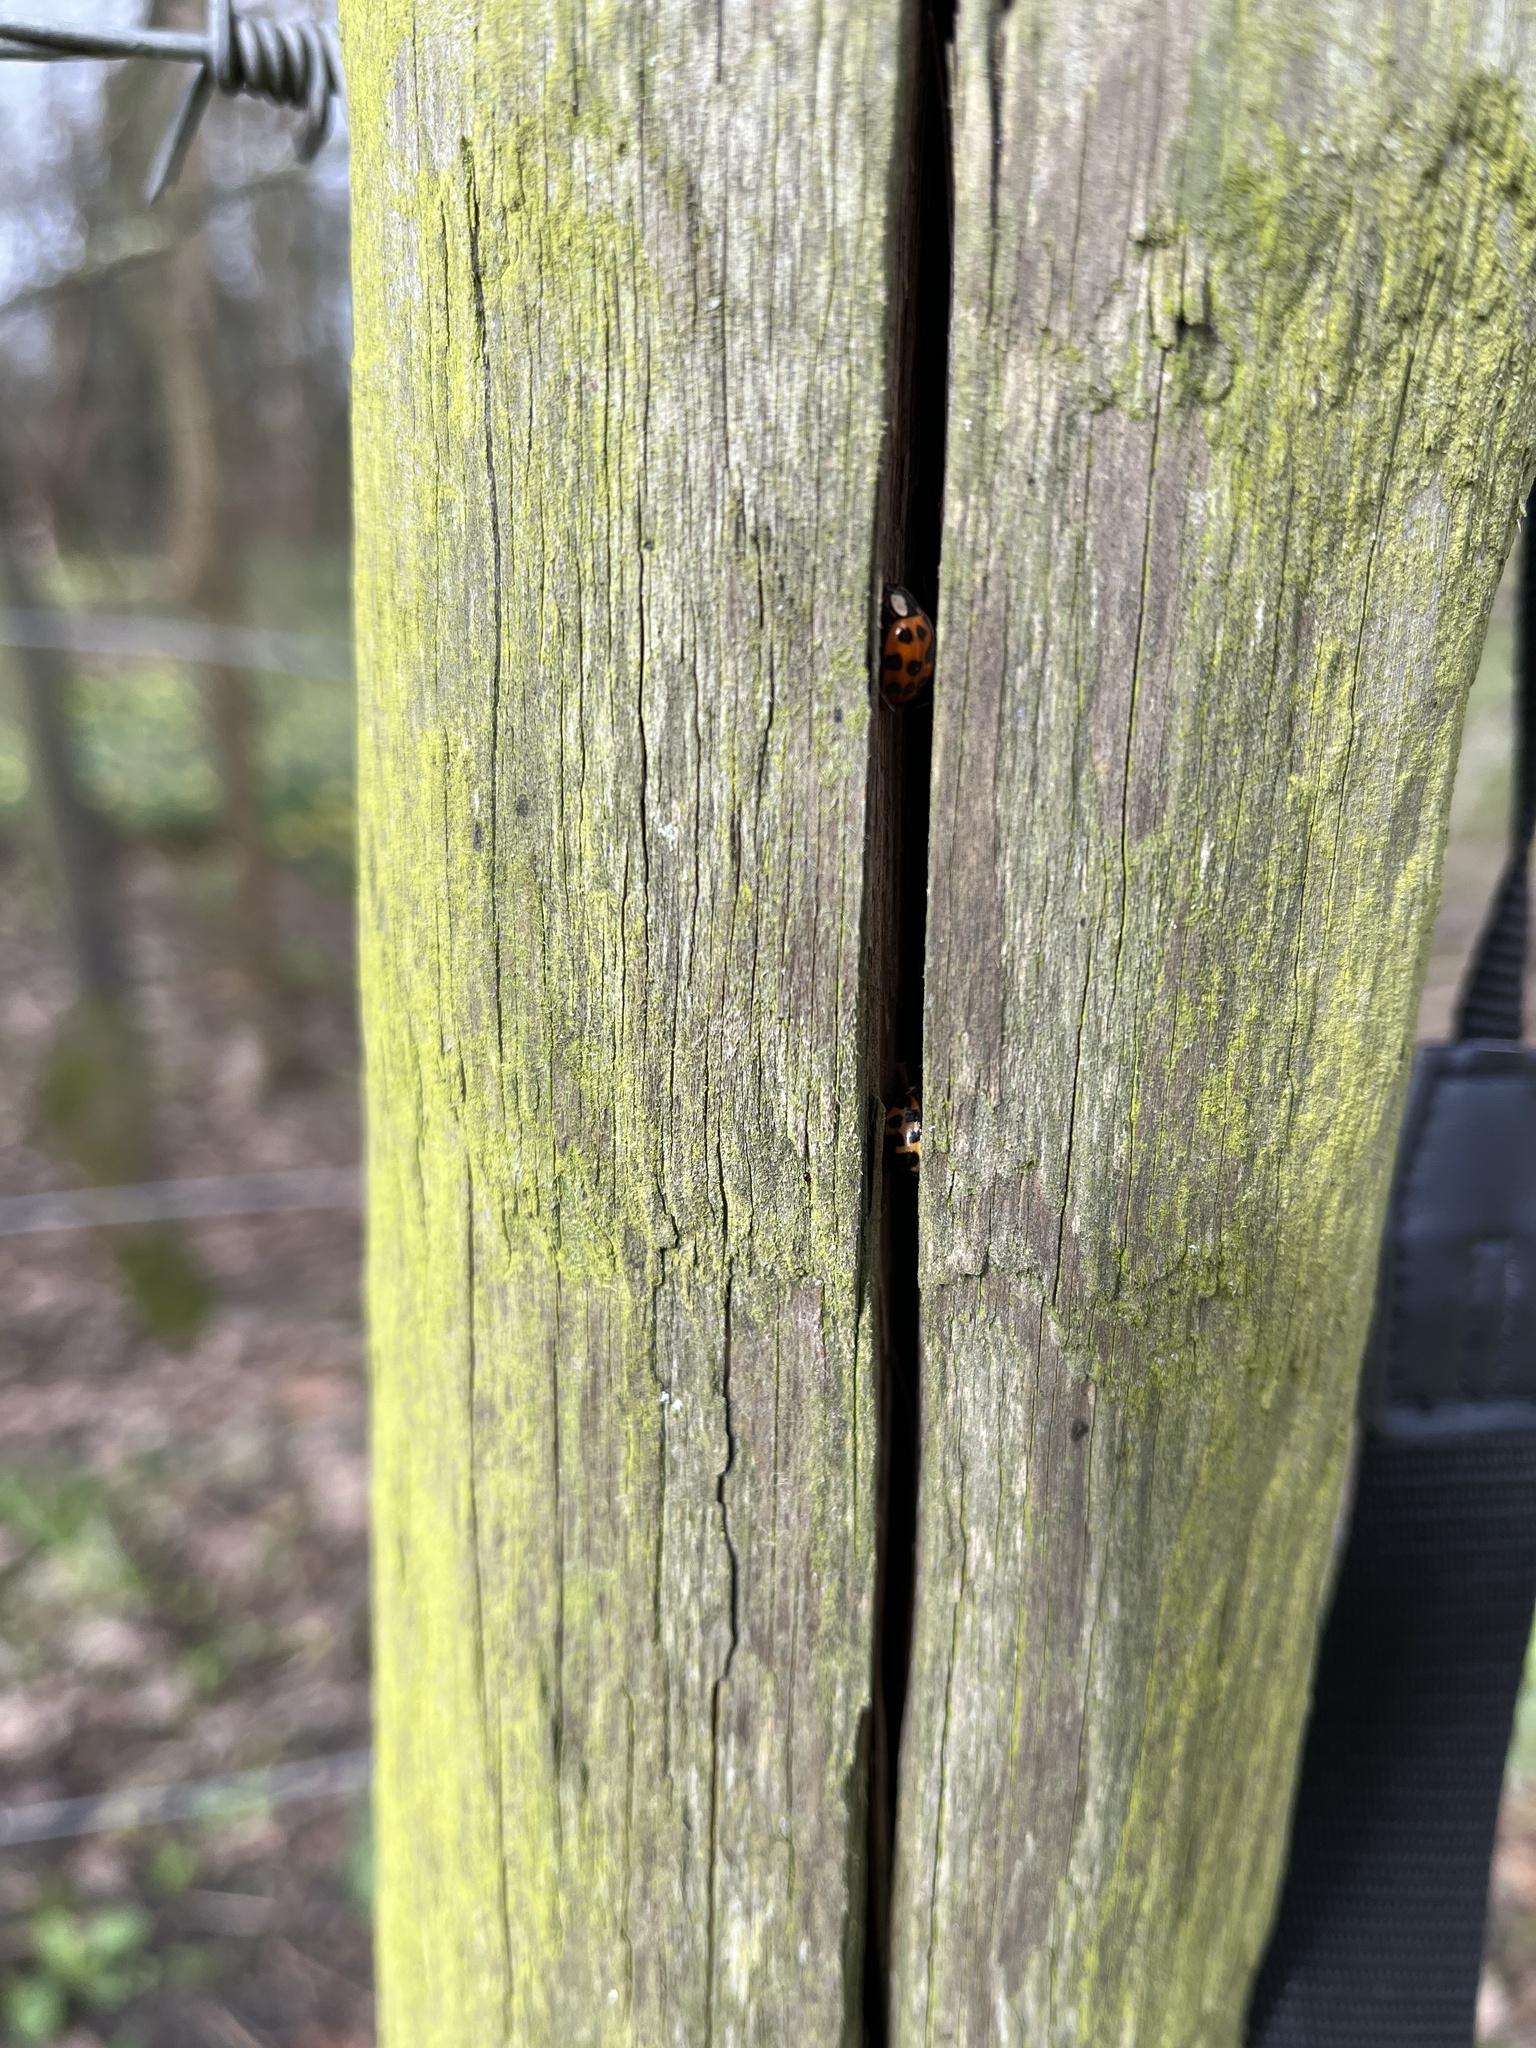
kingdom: Animalia
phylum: Arthropoda
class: Insecta
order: Coleoptera
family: Coccinellidae
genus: Harmonia
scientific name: Harmonia axyridis
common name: Harlequin ladybird
